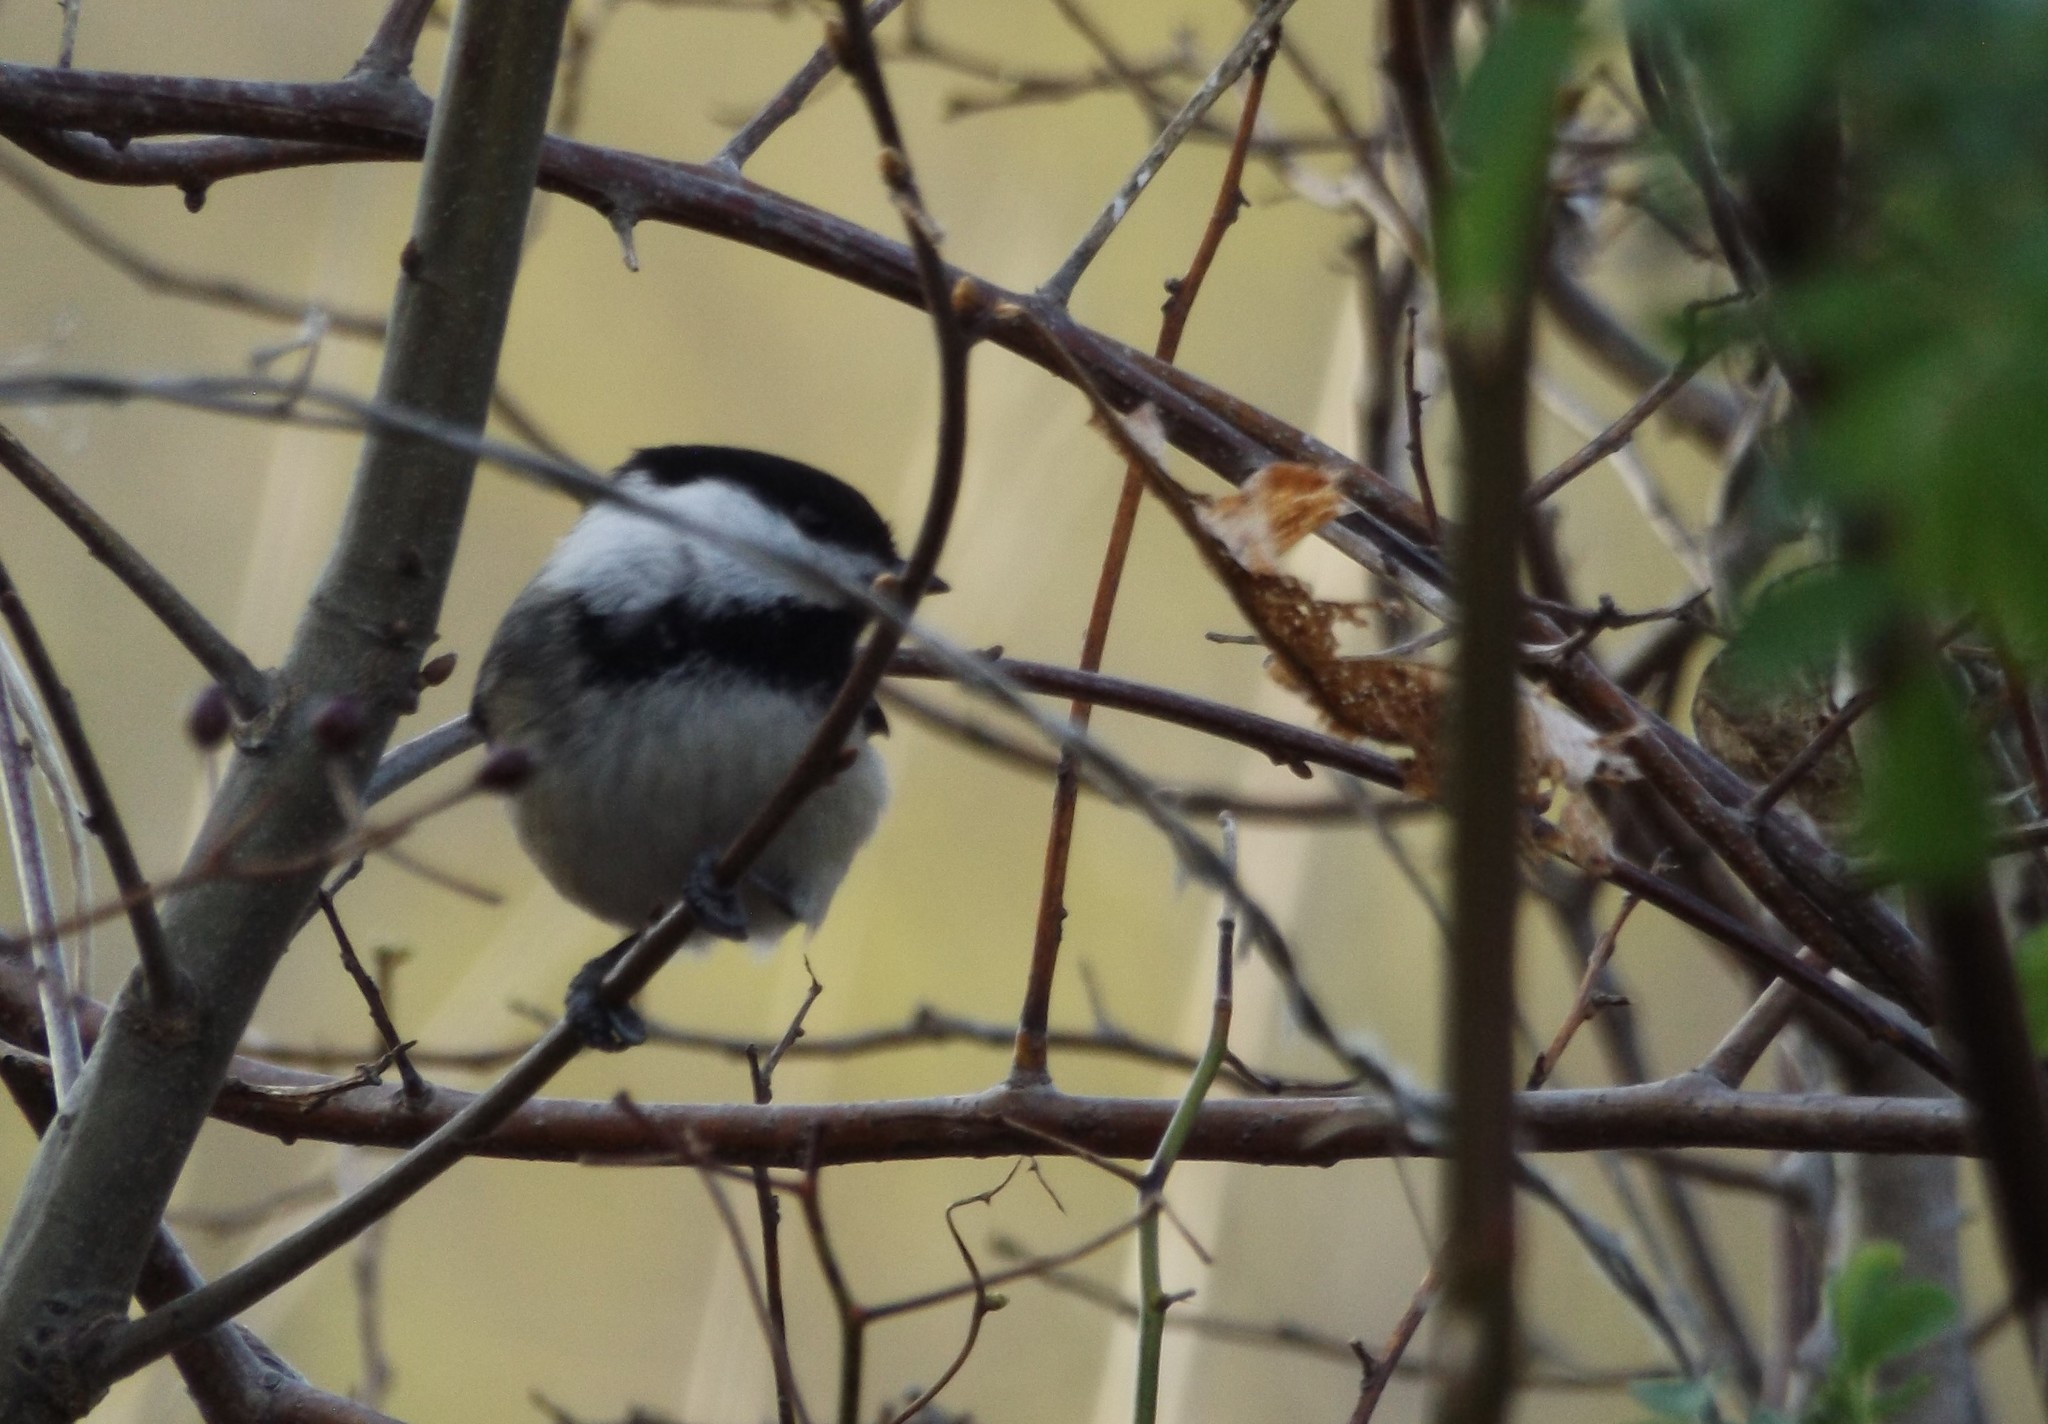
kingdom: Animalia
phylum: Chordata
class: Aves
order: Passeriformes
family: Paridae
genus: Poecile
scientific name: Poecile atricapillus
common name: Black-capped chickadee
